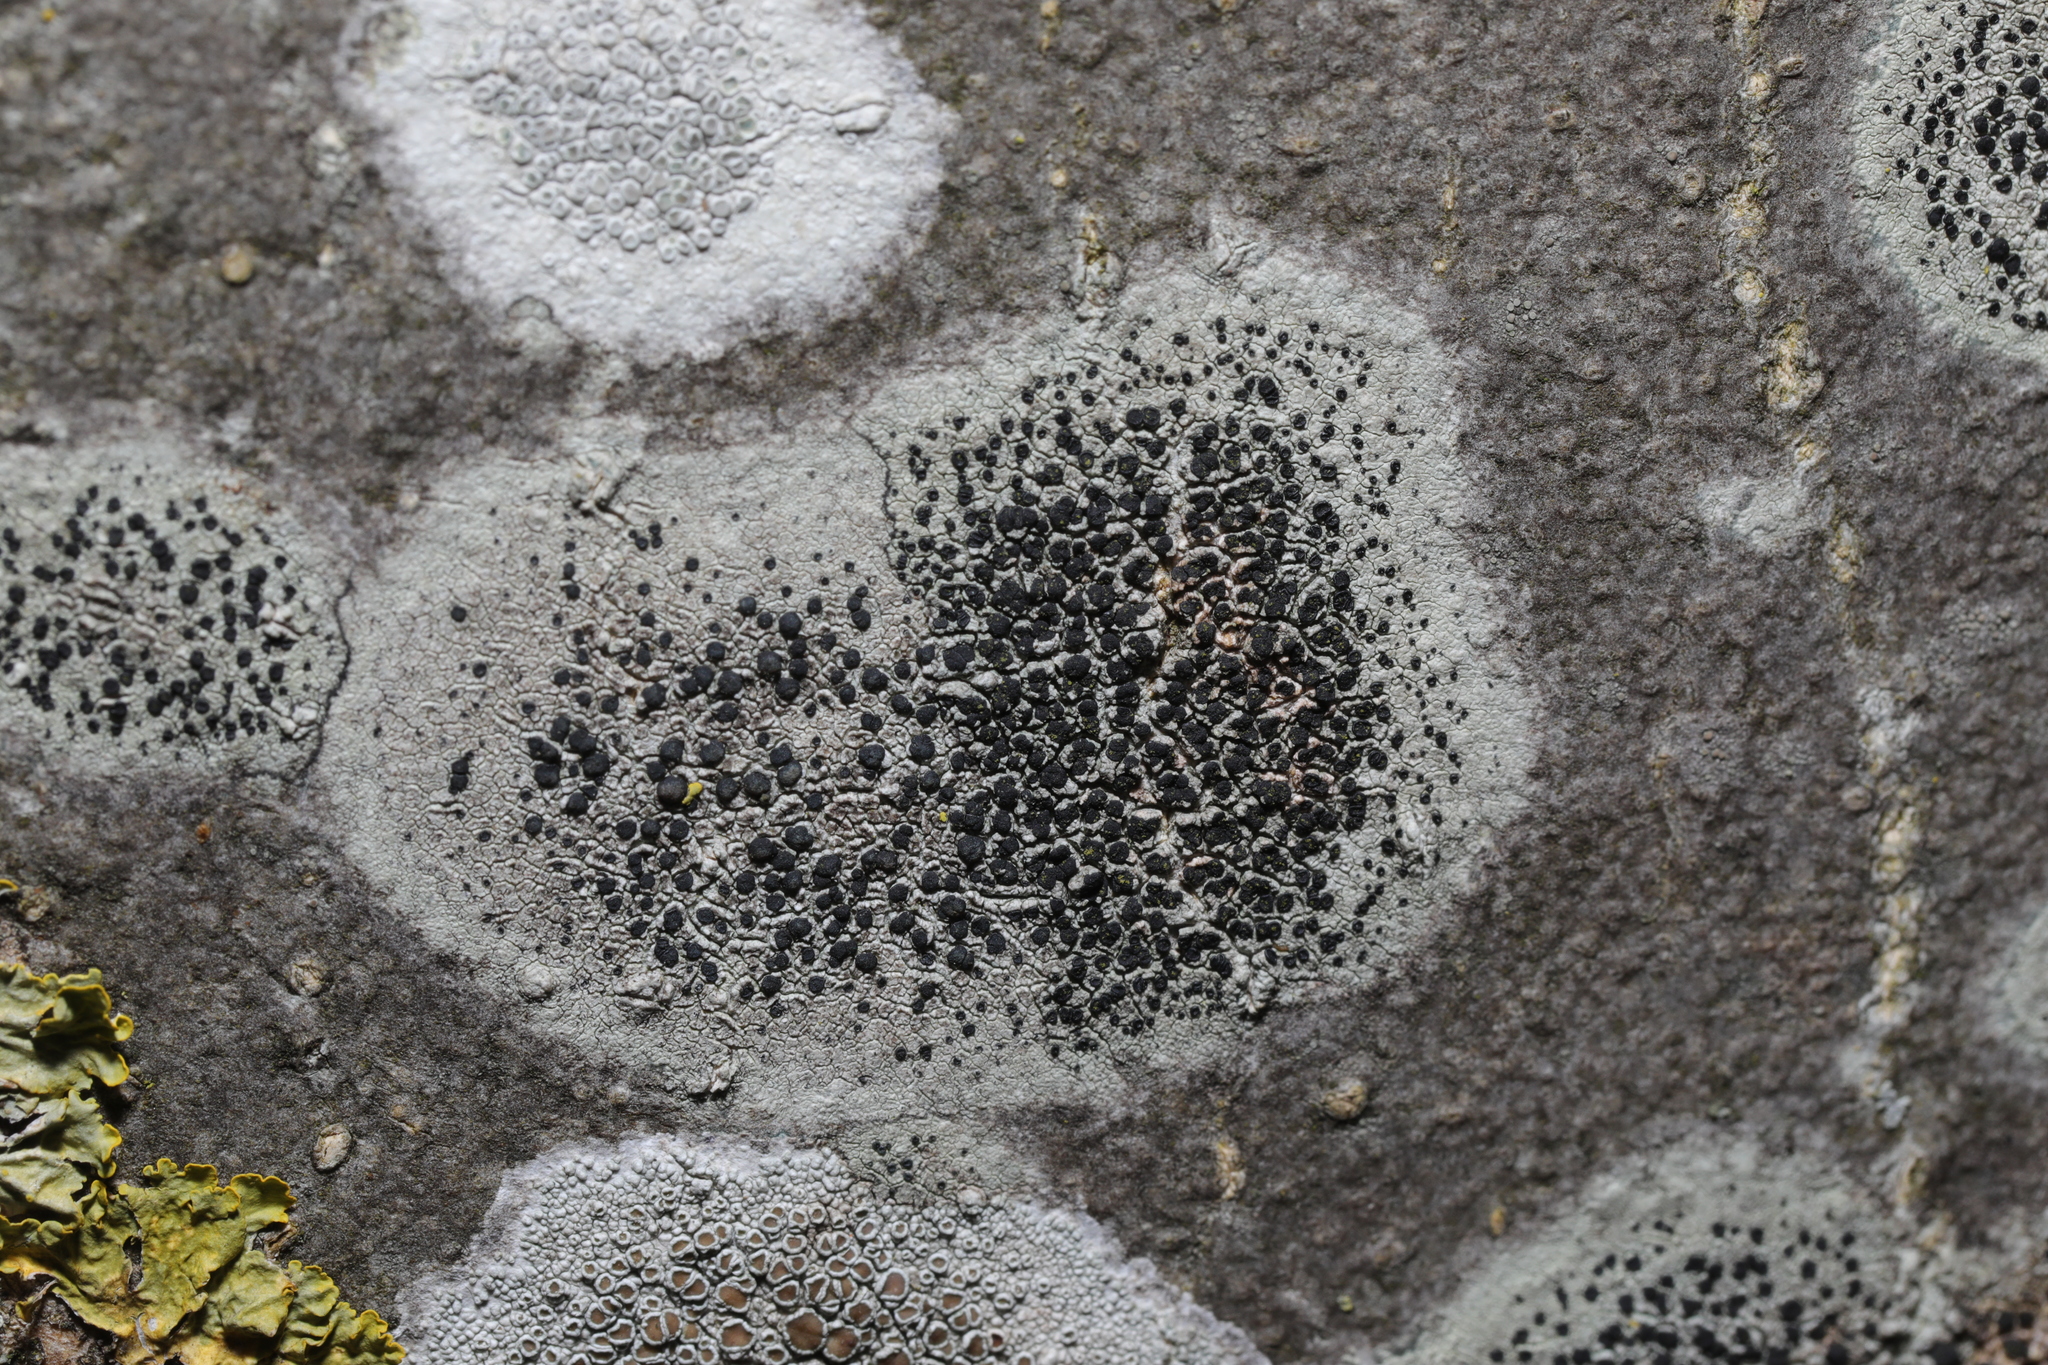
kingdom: Fungi
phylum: Ascomycota
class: Lecanoromycetes
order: Lecanorales
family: Lecanoraceae
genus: Lecidella
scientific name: Lecidella elaeochroma
